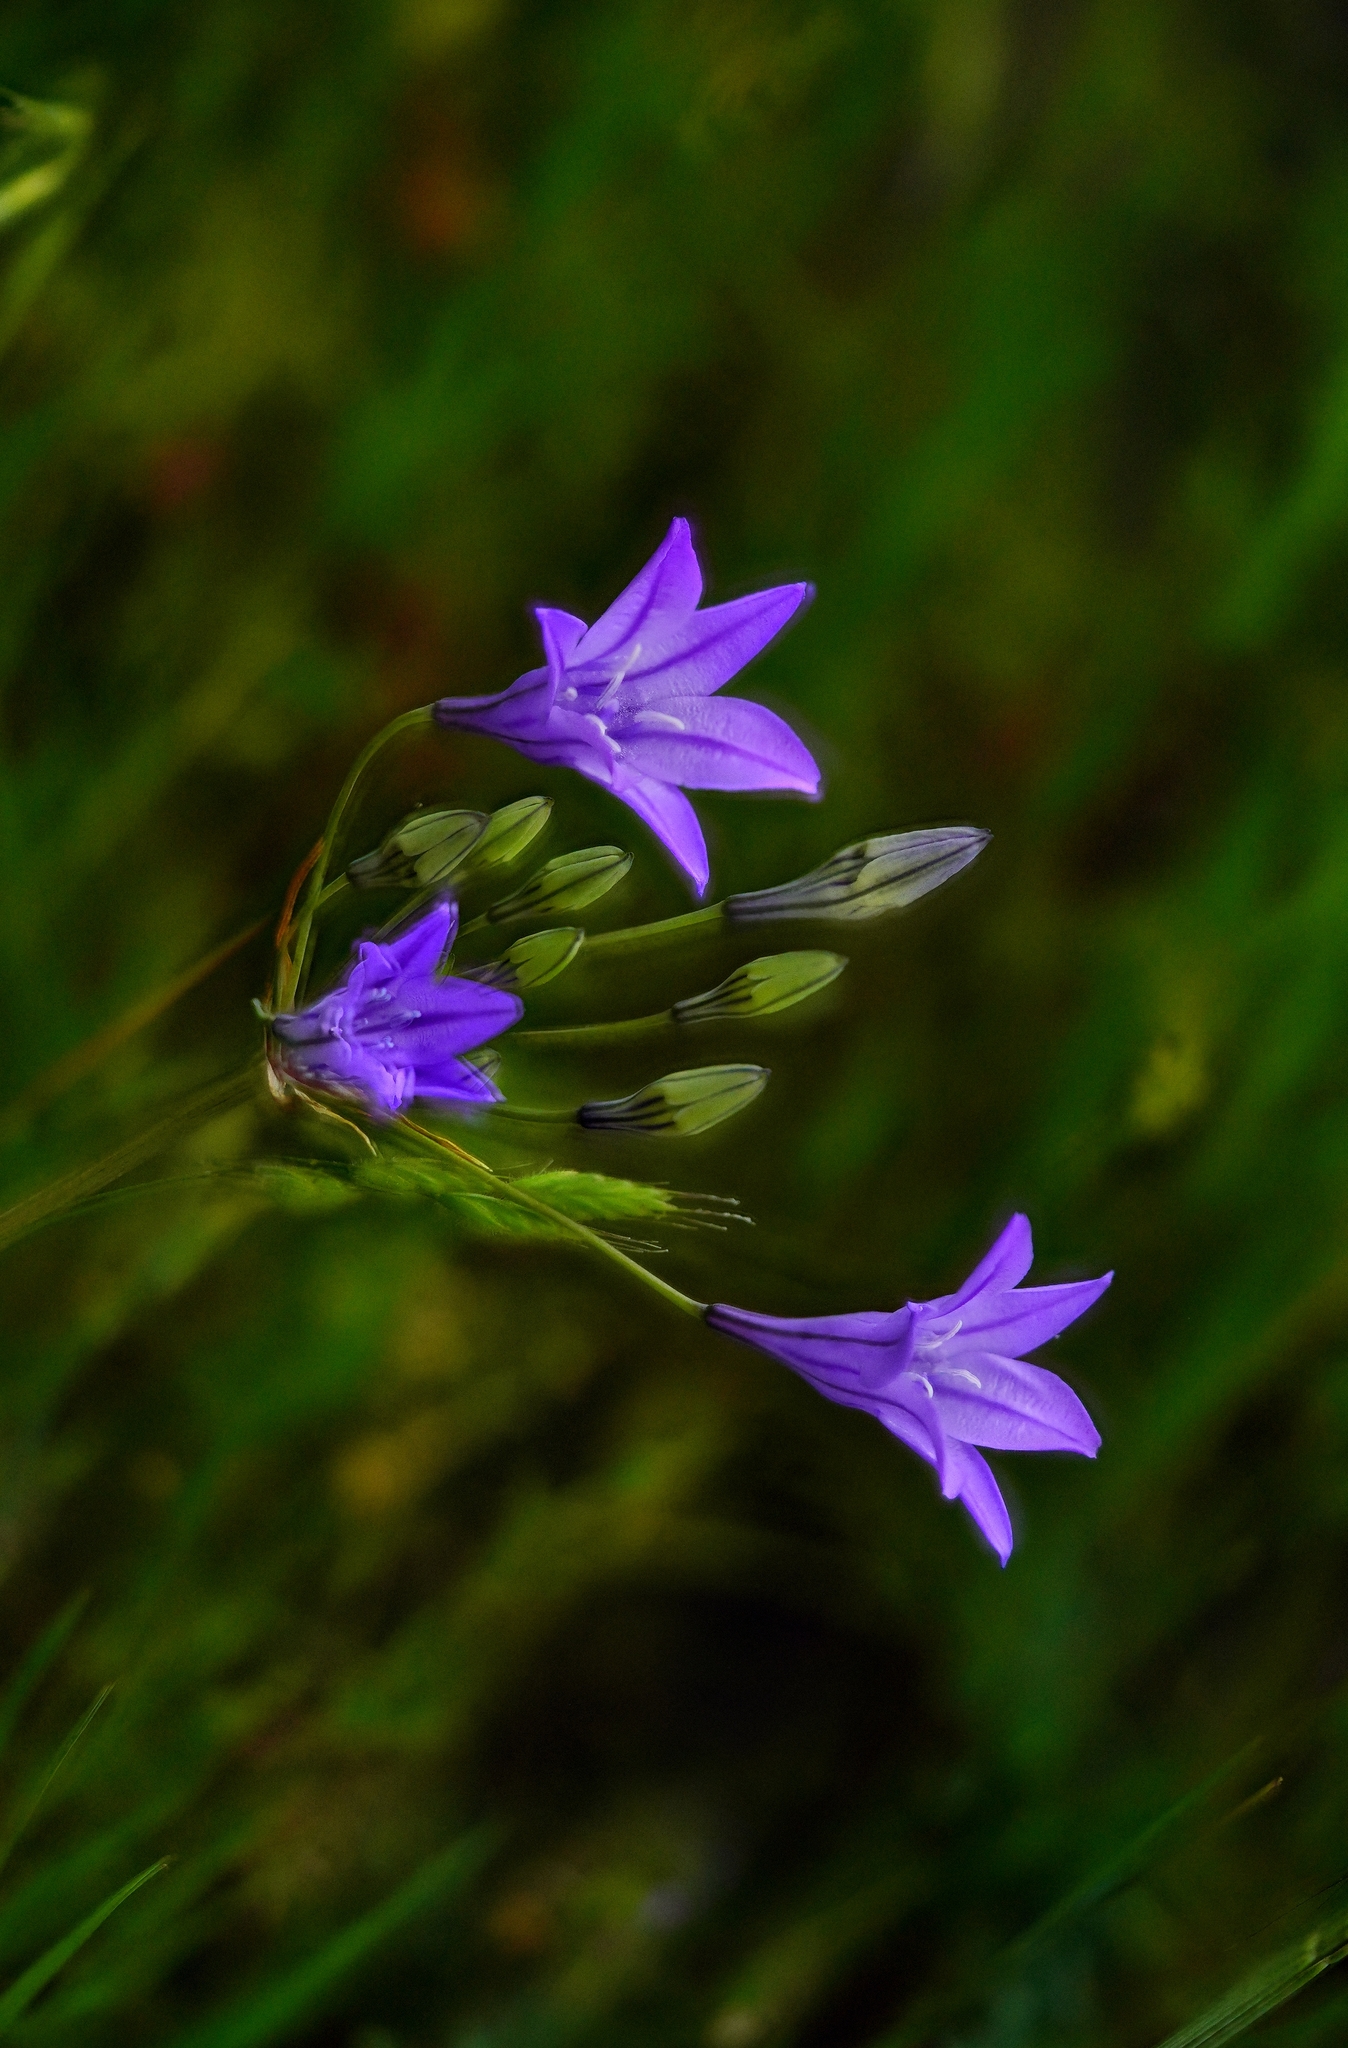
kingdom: Plantae
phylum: Tracheophyta
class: Liliopsida
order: Asparagales
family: Asparagaceae
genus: Triteleia
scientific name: Triteleia laxa
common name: Triplet-lily
